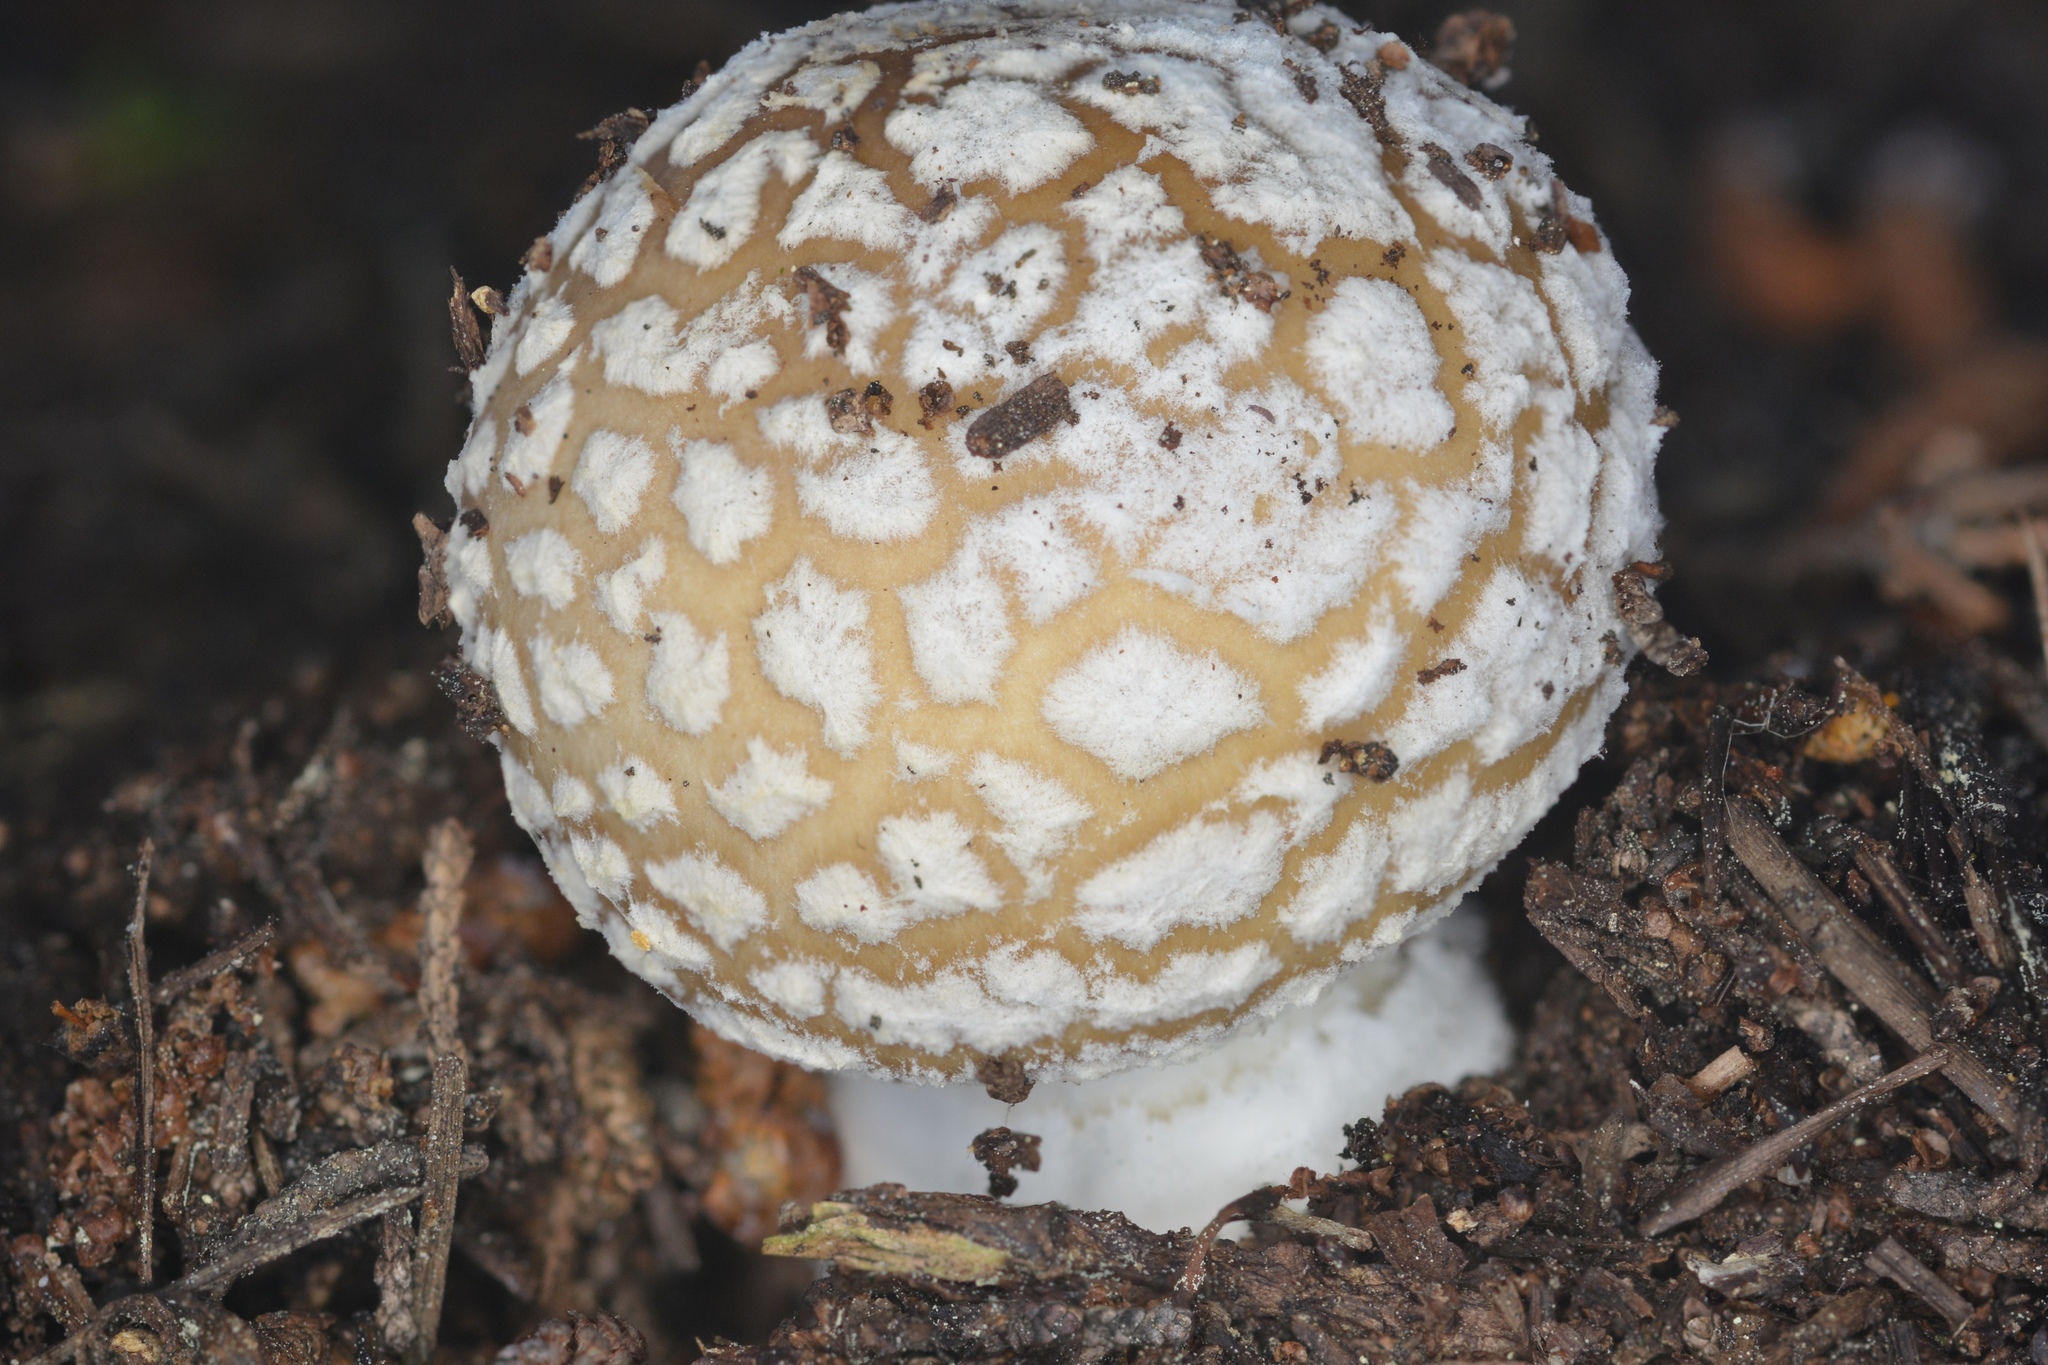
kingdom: Fungi
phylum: Basidiomycota
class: Agaricomycetes
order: Agaricales
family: Amanitaceae
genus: Amanita
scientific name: Amanita pantherina
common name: Panthercap
